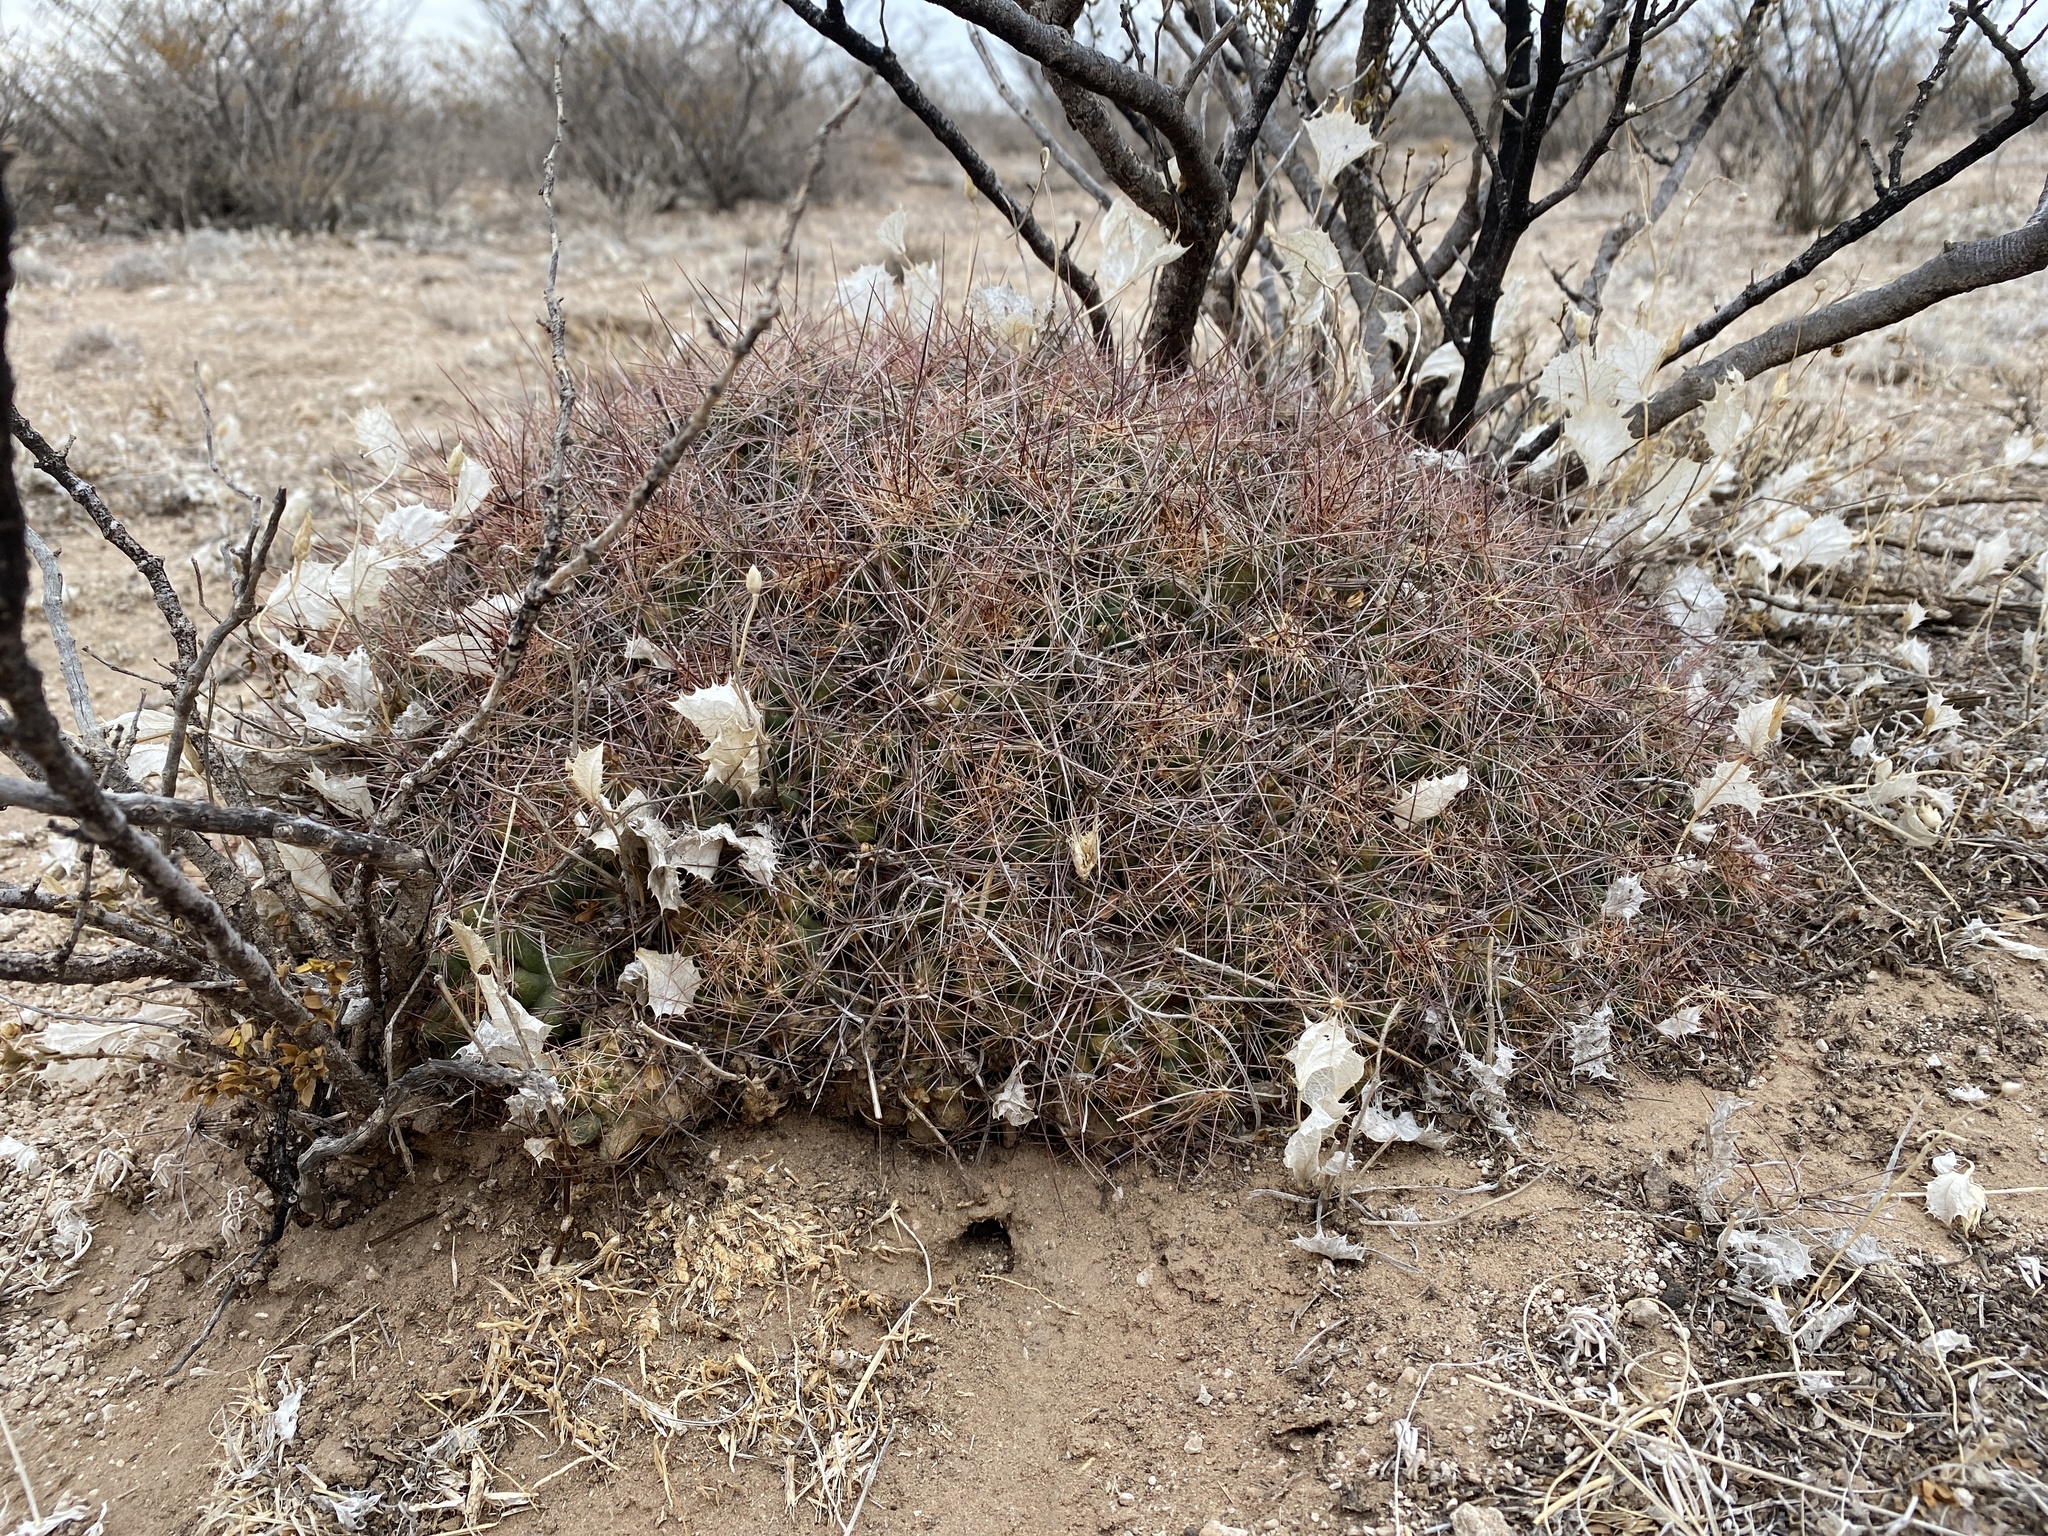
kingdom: Plantae
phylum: Tracheophyta
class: Magnoliopsida
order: Caryophyllales
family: Cactaceae
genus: Coryphantha
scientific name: Coryphantha macromeris
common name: Nipple beehive cactus
